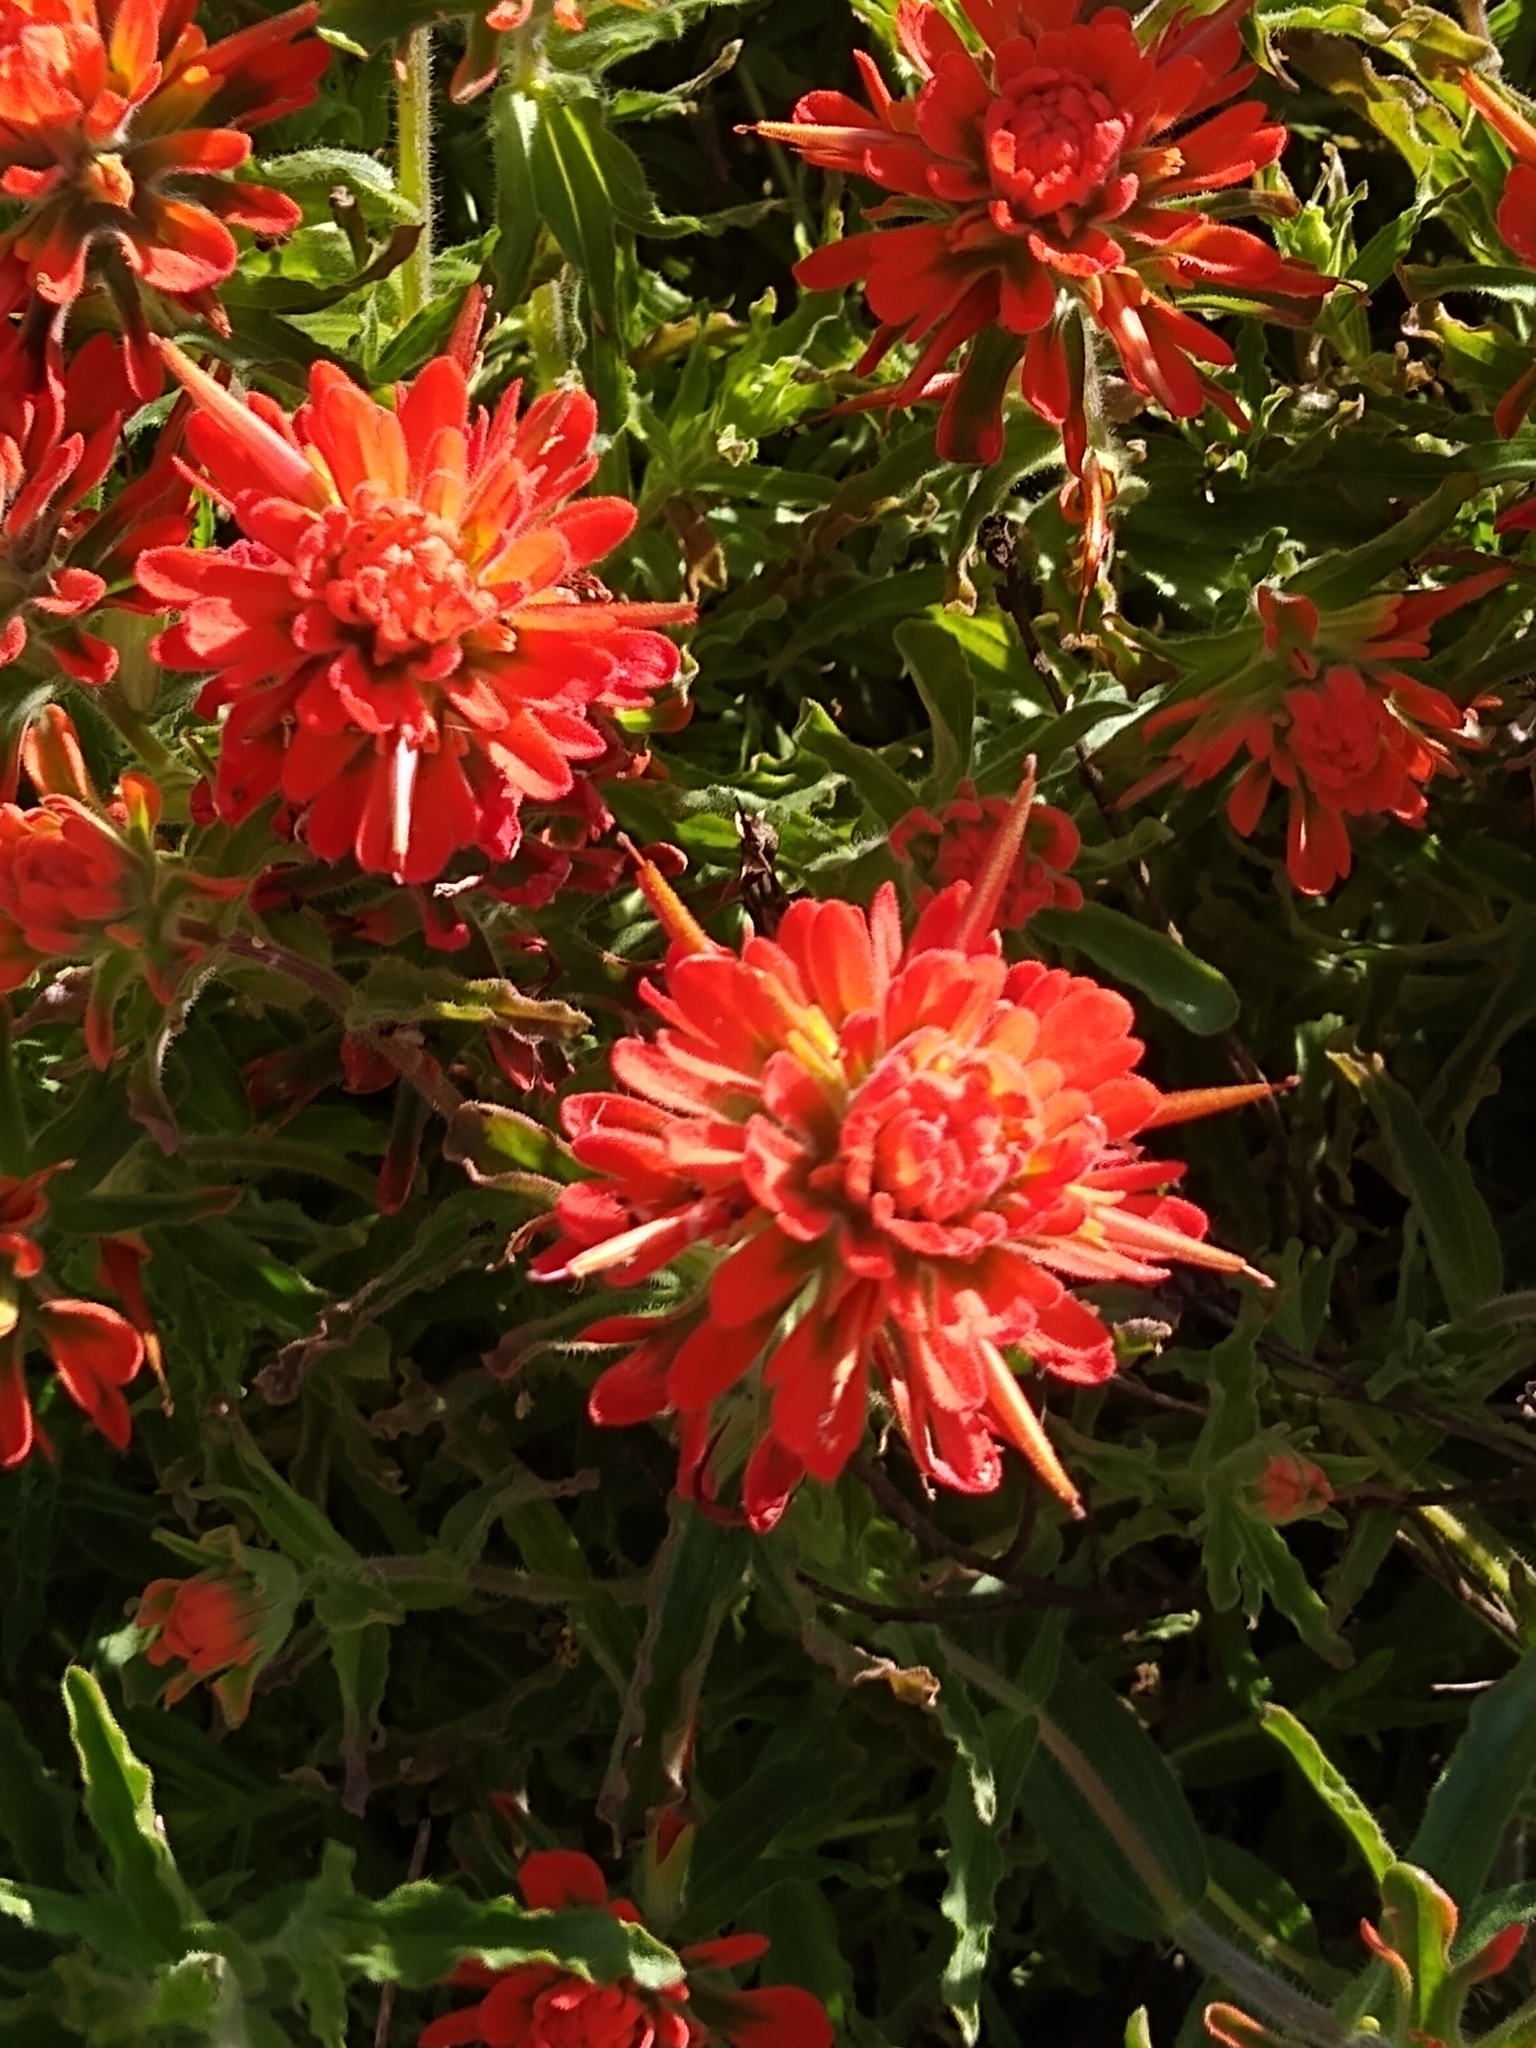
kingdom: Plantae
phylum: Tracheophyta
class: Magnoliopsida
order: Lamiales
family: Orobanchaceae
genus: Castilleja
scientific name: Castilleja foliolosa
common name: Woolly indian paintbrush
